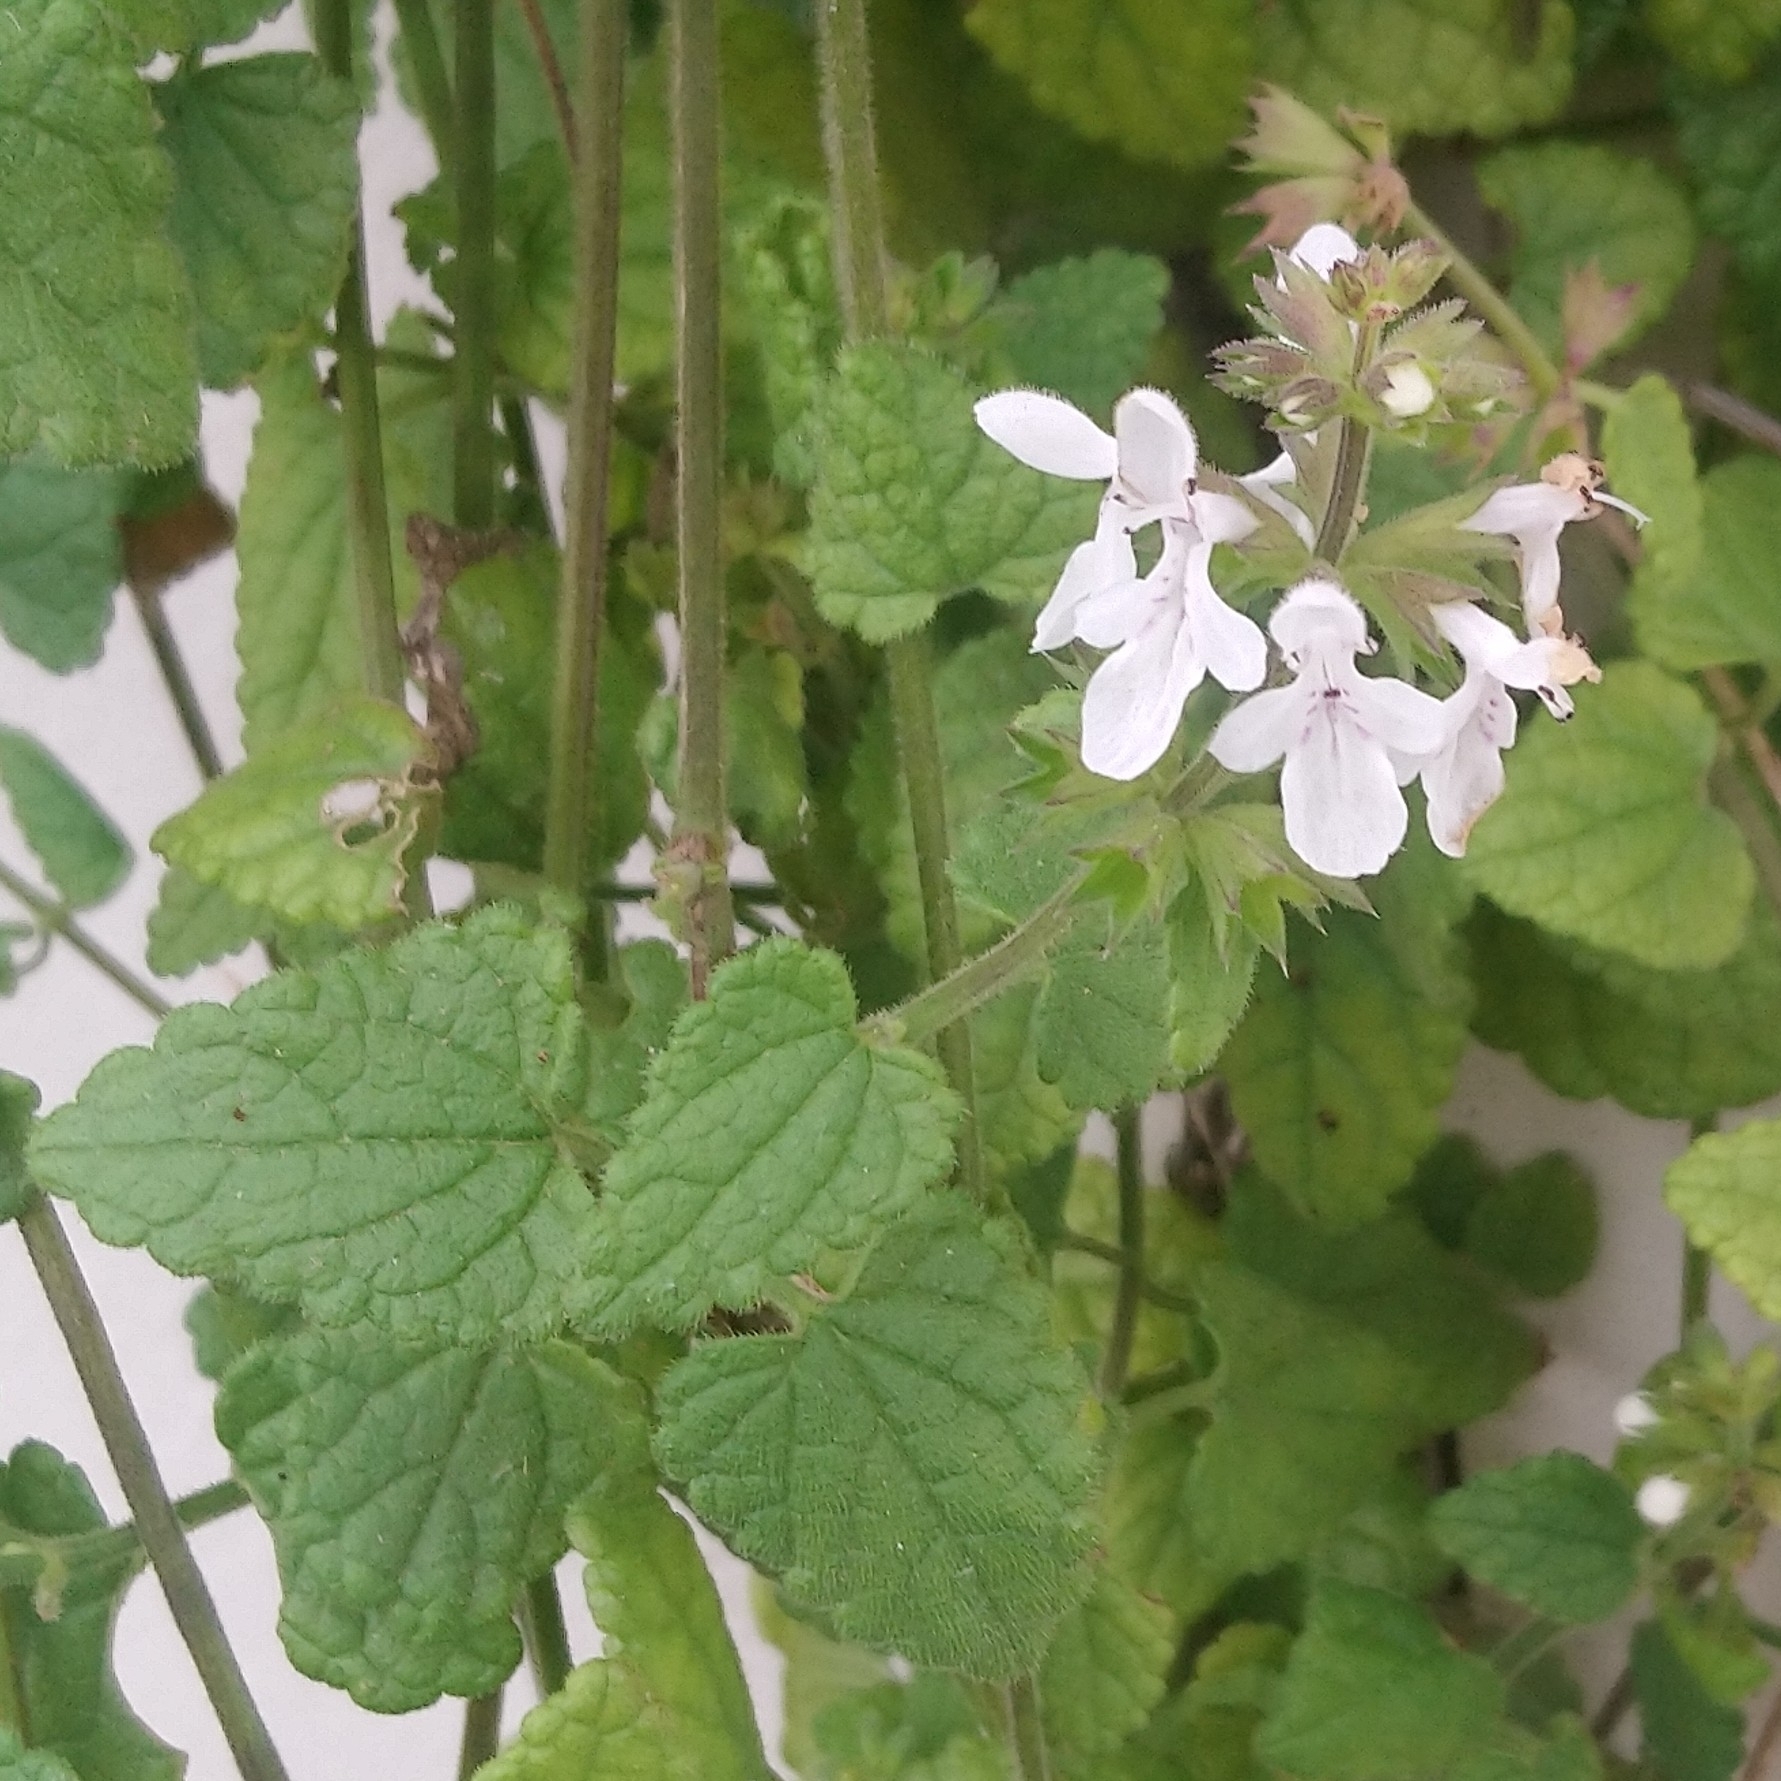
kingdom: Plantae
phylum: Tracheophyta
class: Magnoliopsida
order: Lamiales
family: Lamiaceae
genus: Stachys
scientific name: Stachys aethiopica
